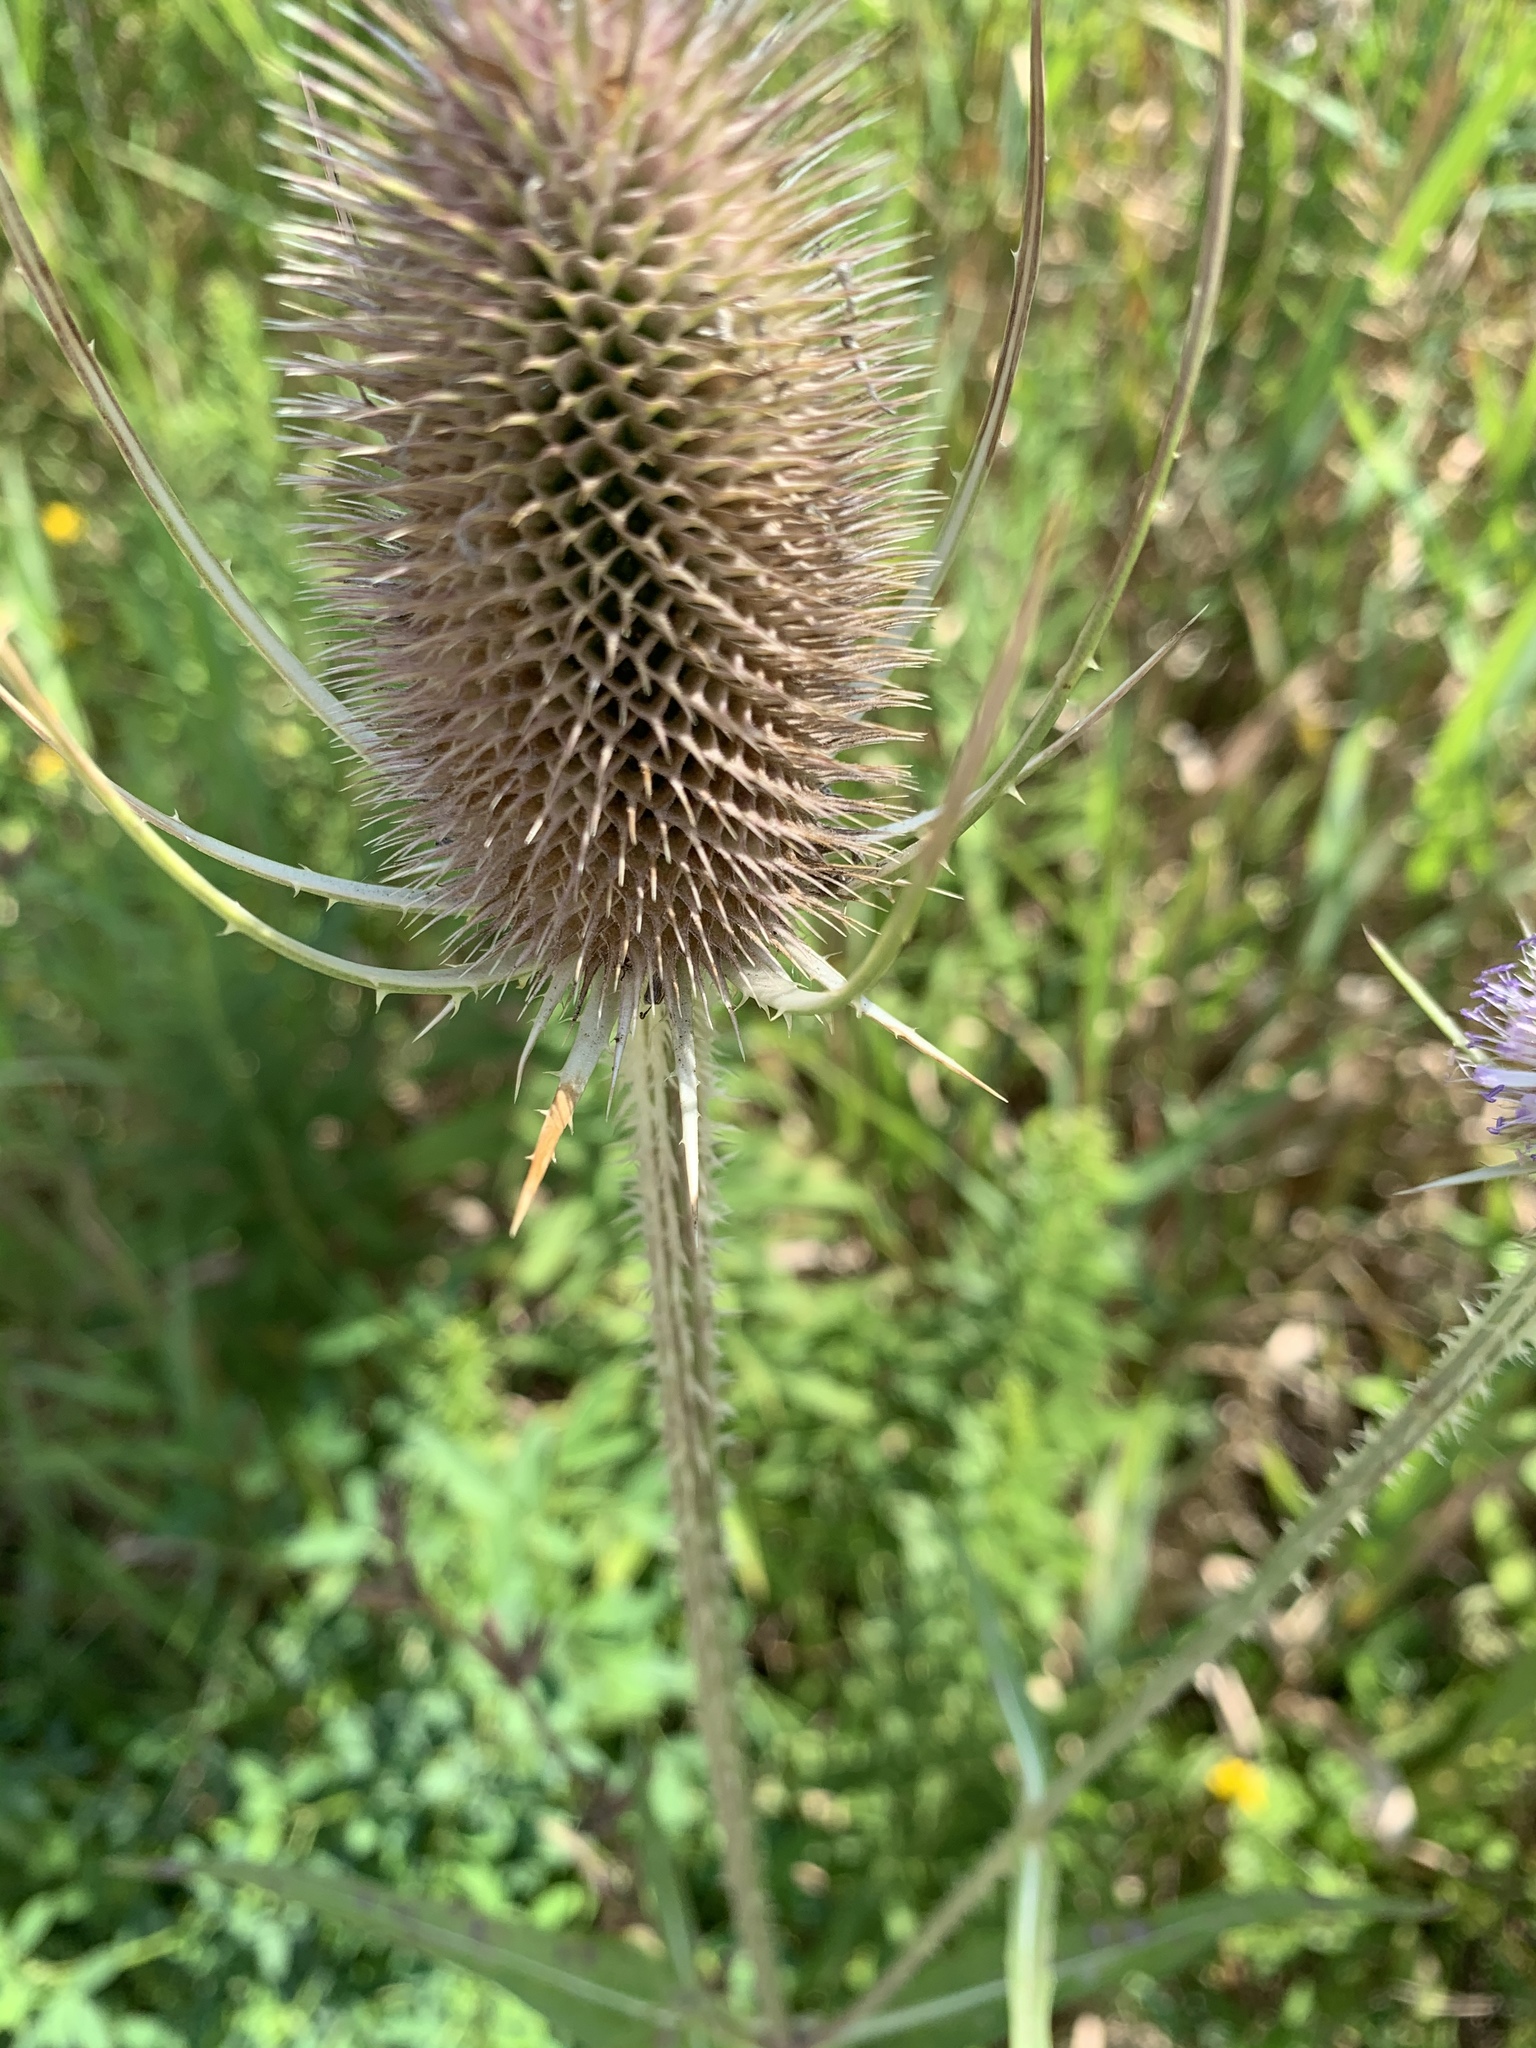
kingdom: Plantae
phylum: Tracheophyta
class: Magnoliopsida
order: Dipsacales
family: Caprifoliaceae
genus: Dipsacus
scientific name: Dipsacus fullonum
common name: Teasel
